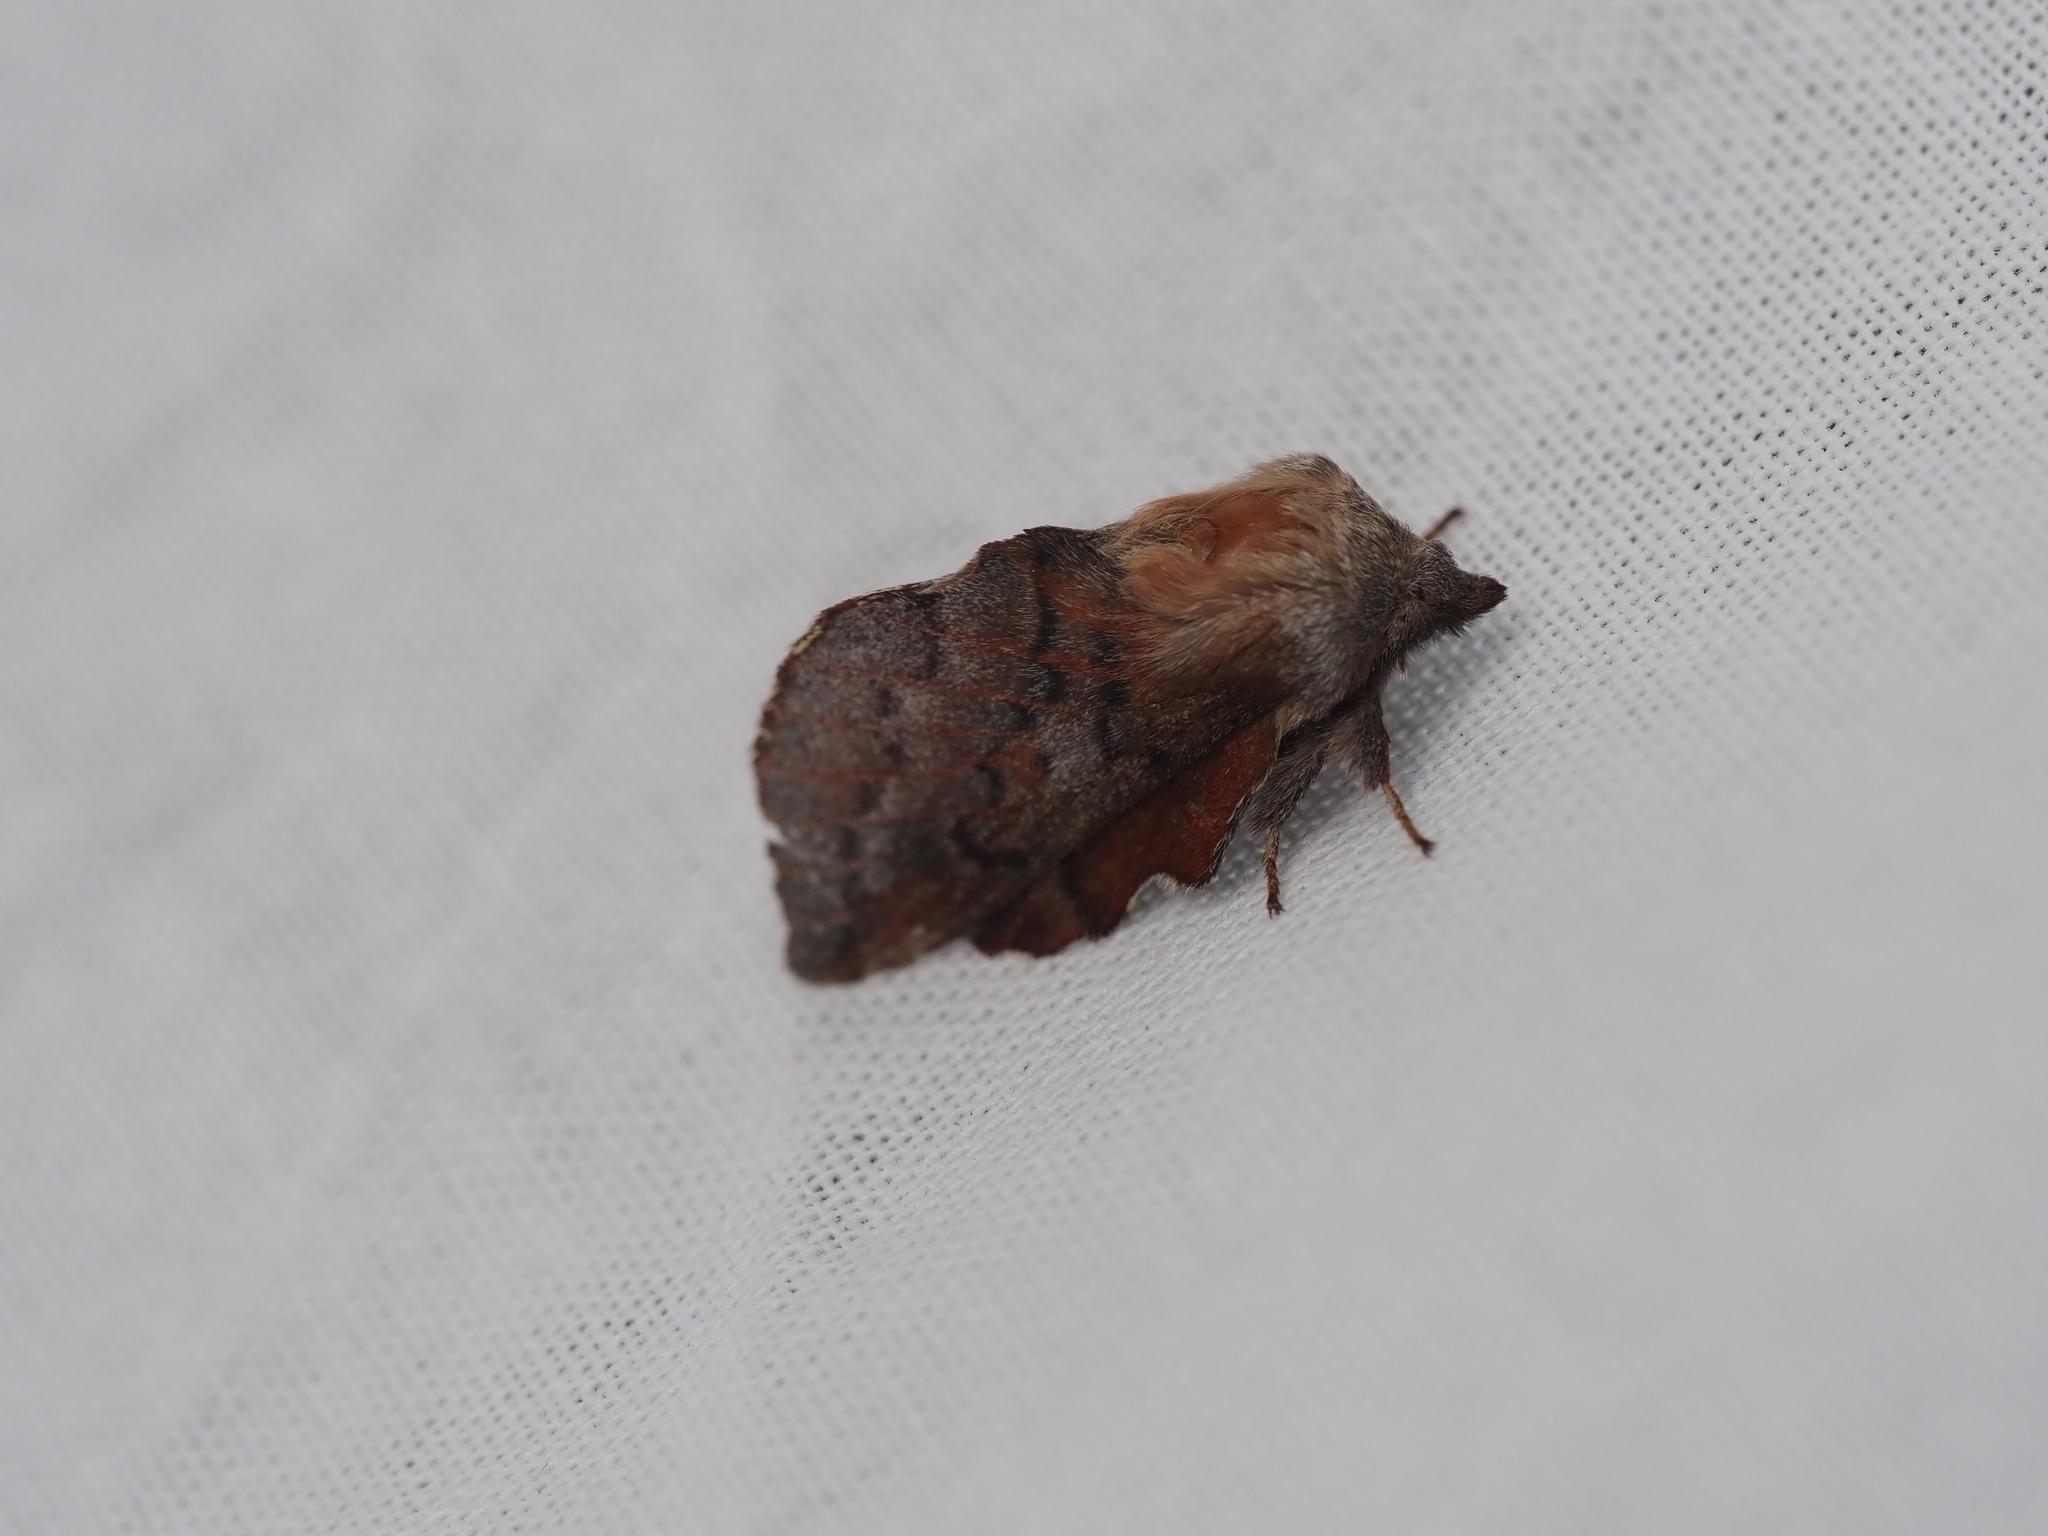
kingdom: Animalia
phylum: Arthropoda
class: Insecta
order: Lepidoptera
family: Lasiocampidae
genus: Phyllodesma
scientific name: Phyllodesma americana
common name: American lappet moth
